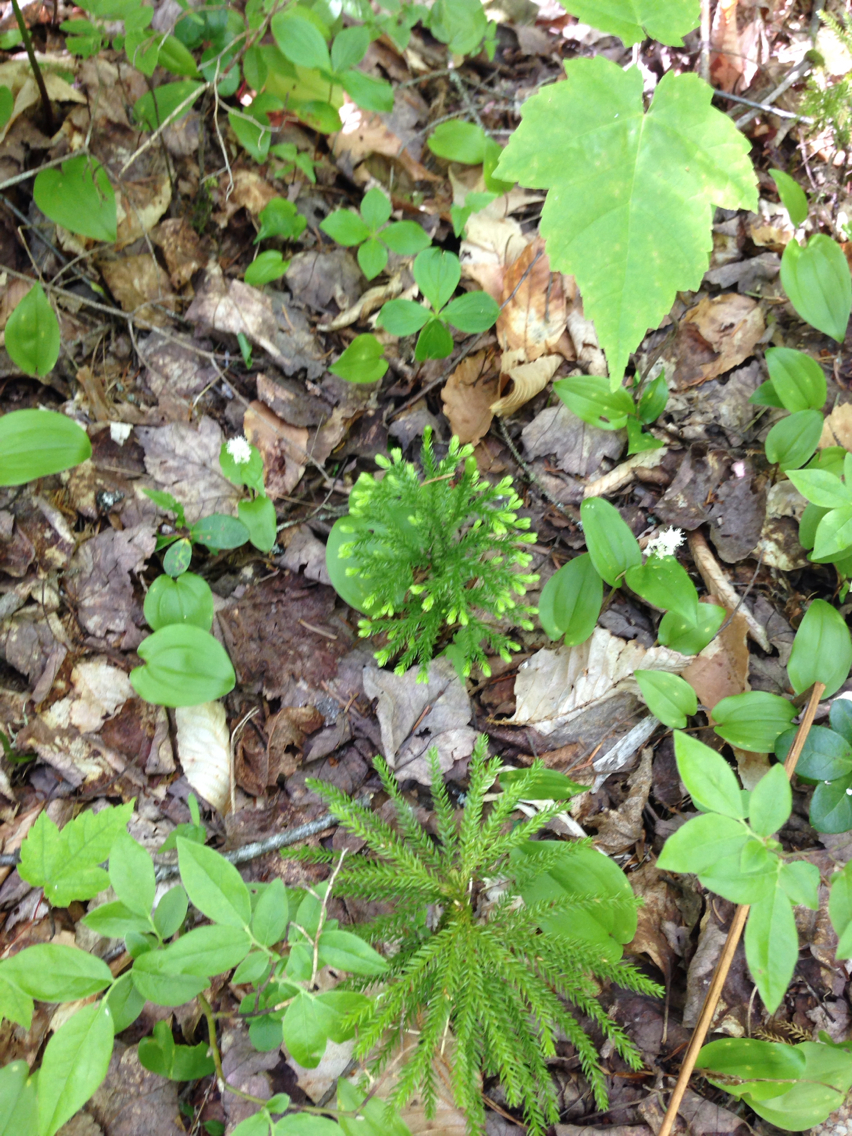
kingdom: Plantae
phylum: Tracheophyta
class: Lycopodiopsida
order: Lycopodiales
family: Lycopodiaceae
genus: Dendrolycopodium
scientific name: Dendrolycopodium
